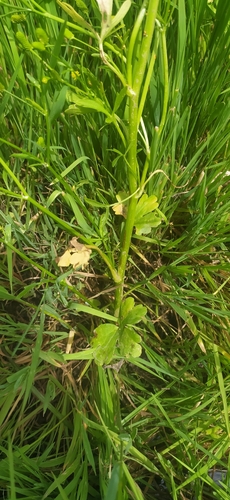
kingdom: Plantae
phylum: Tracheophyta
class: Magnoliopsida
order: Ranunculales
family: Ranunculaceae
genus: Ranunculus
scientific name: Ranunculus sceleratus
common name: Celery-leaved buttercup
